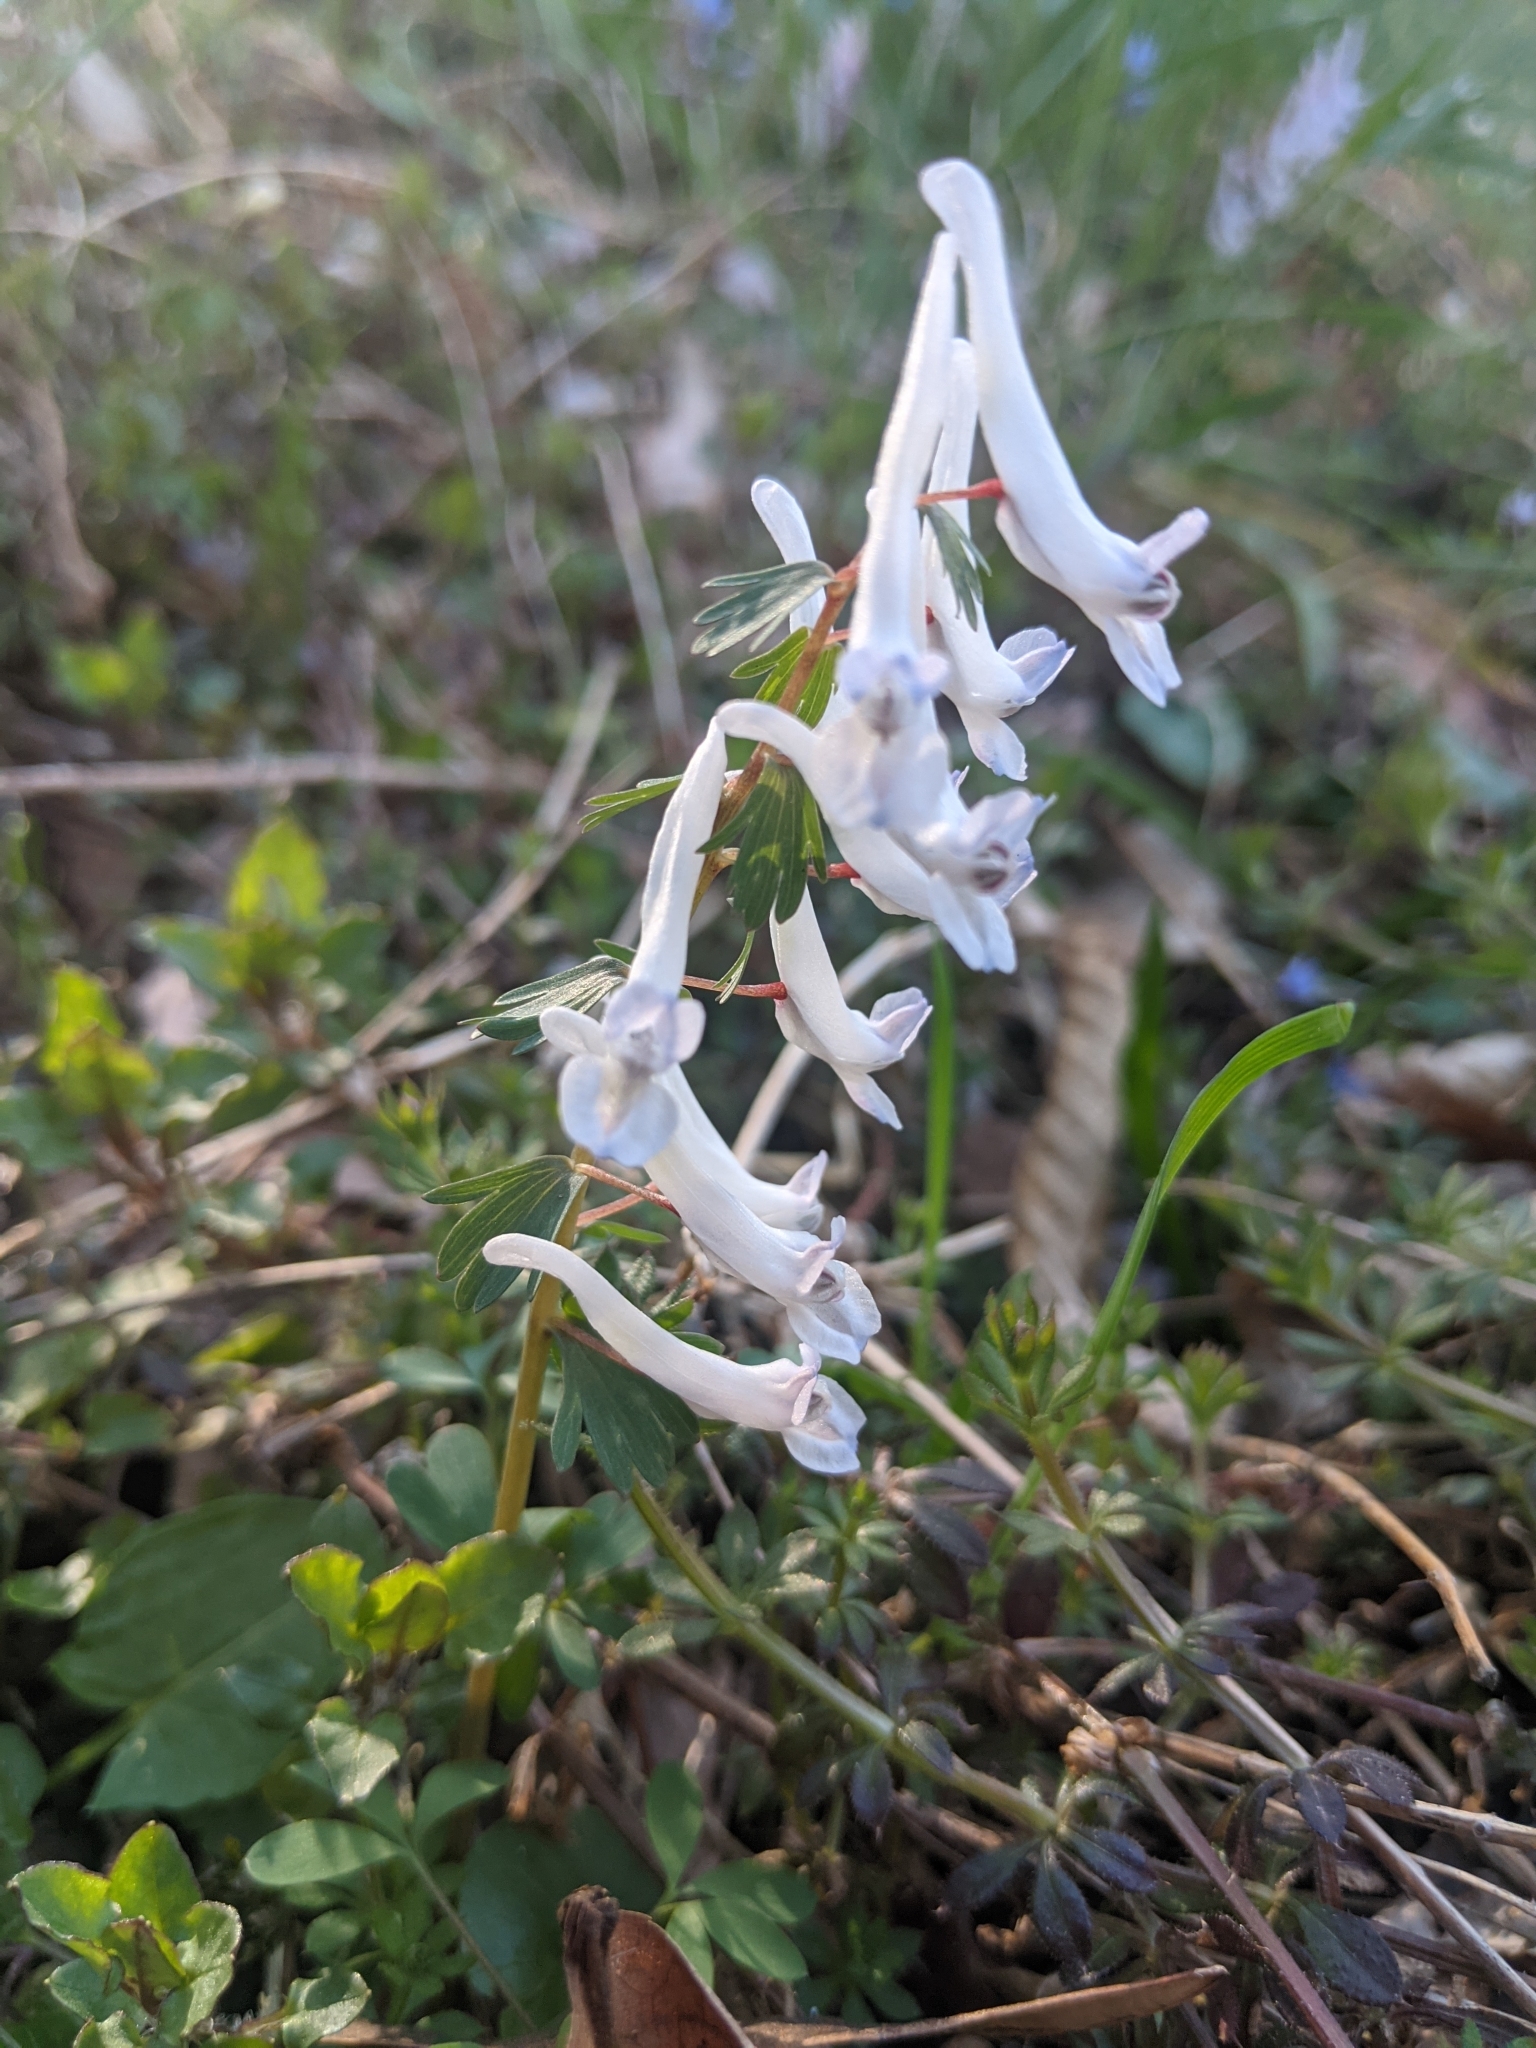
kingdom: Plantae
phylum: Tracheophyta
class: Magnoliopsida
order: Ranunculales
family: Papaveraceae
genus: Corydalis
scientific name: Corydalis solida
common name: Bird-in-a-bush
